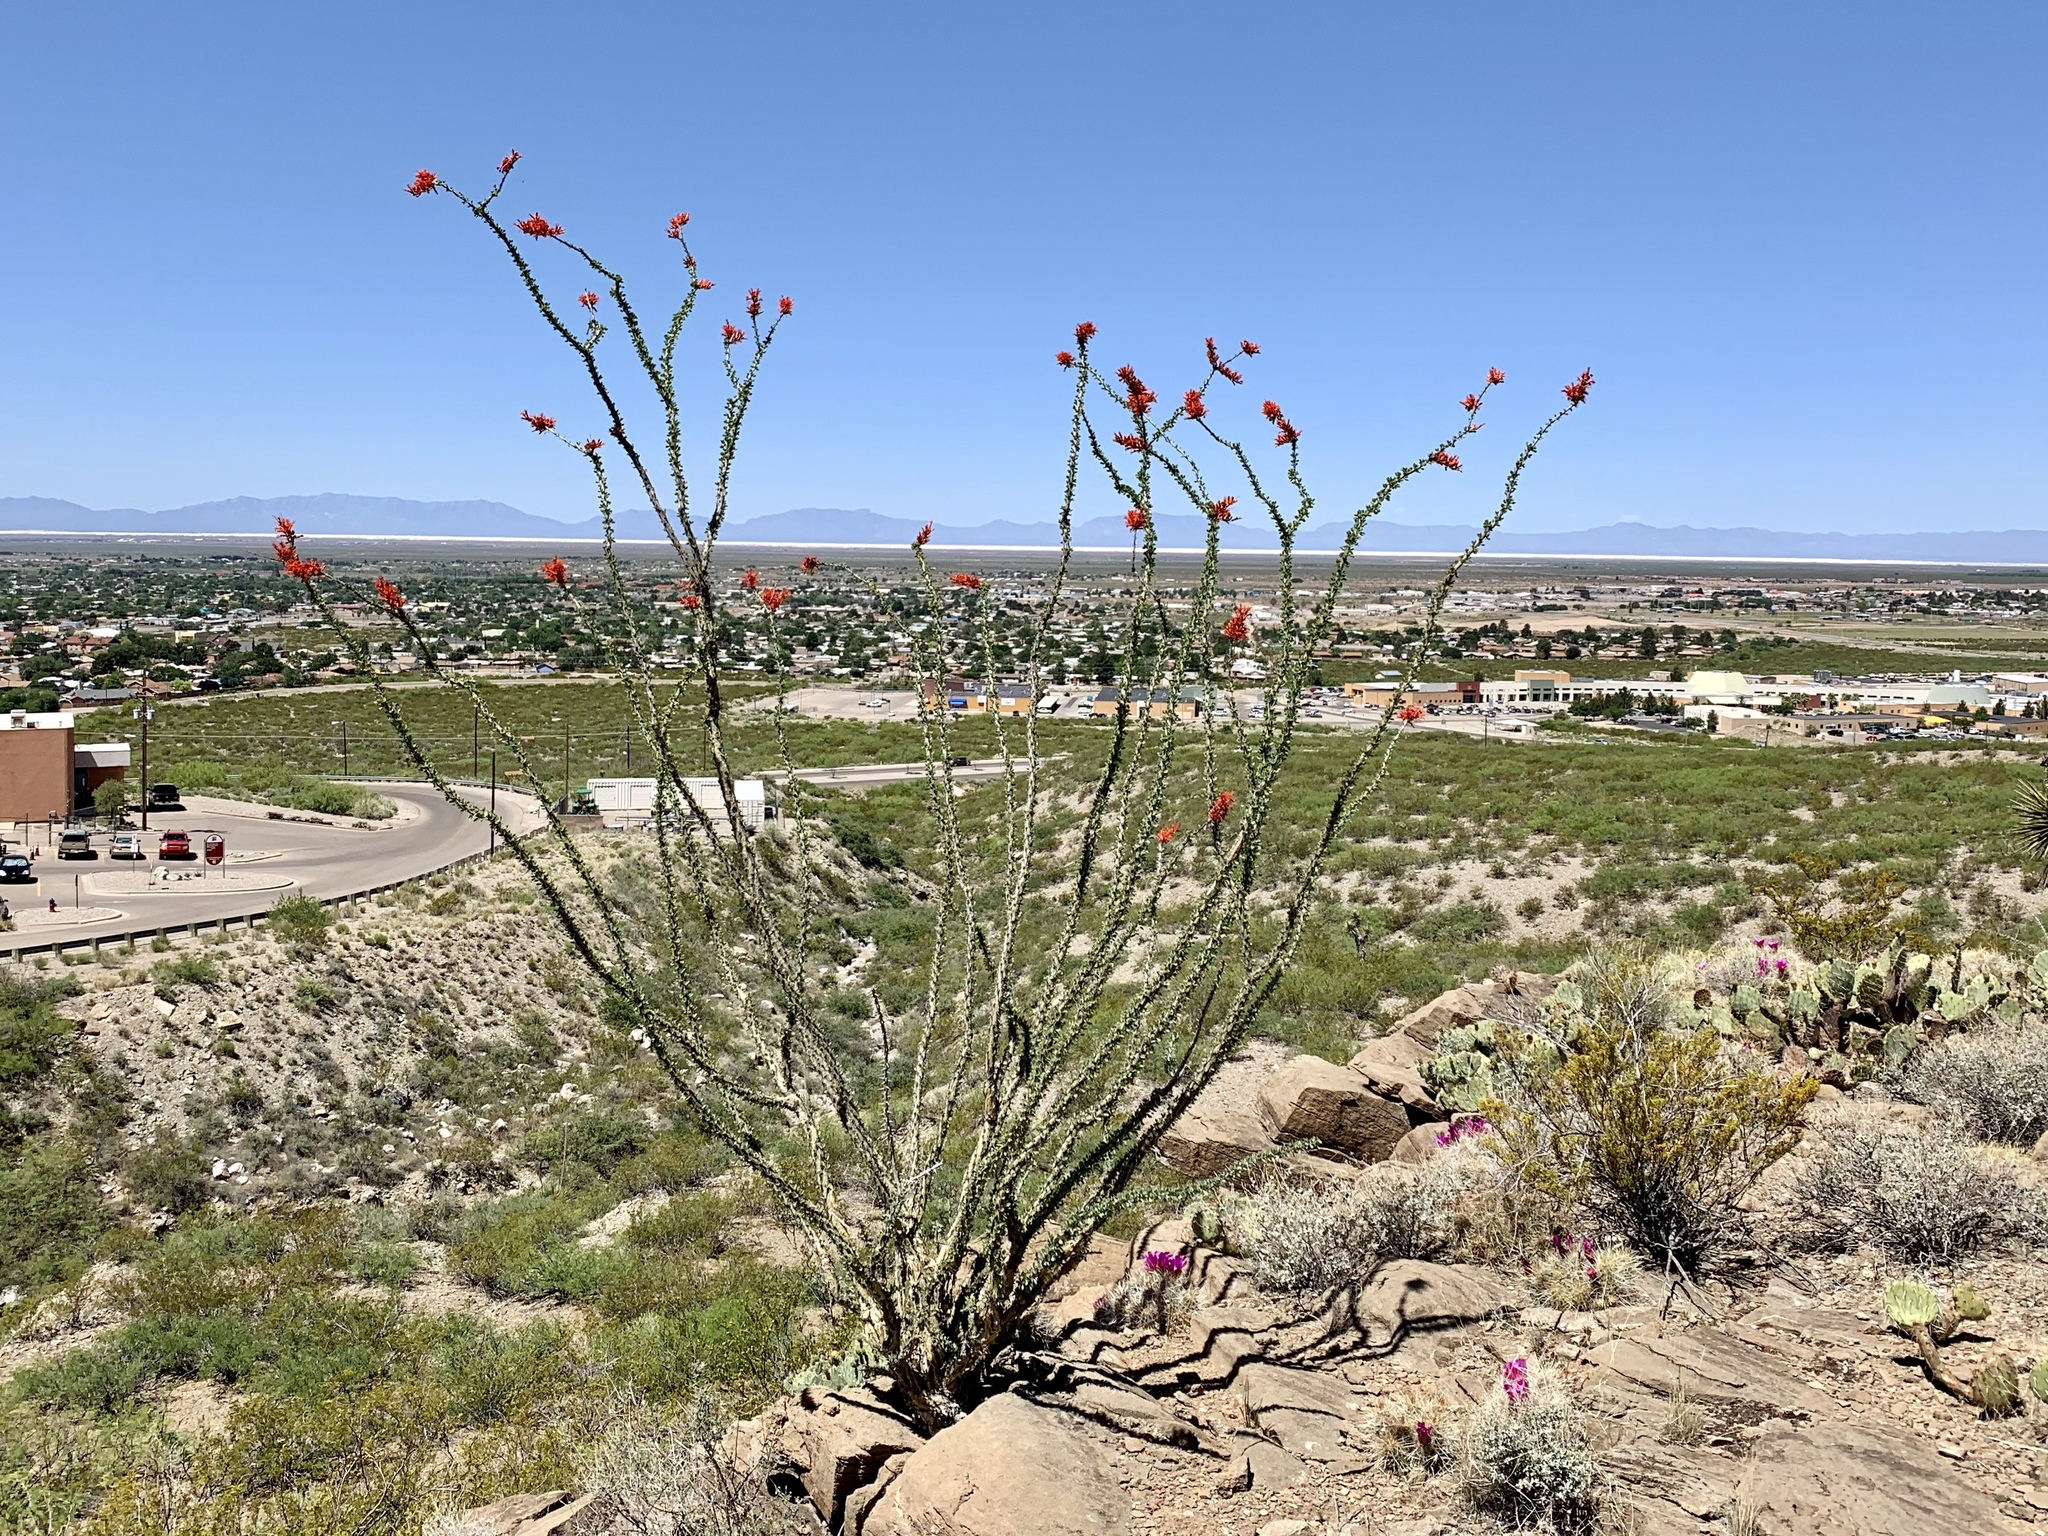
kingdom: Plantae
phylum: Tracheophyta
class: Magnoliopsida
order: Ericales
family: Fouquieriaceae
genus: Fouquieria
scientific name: Fouquieria splendens
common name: Vine-cactus
